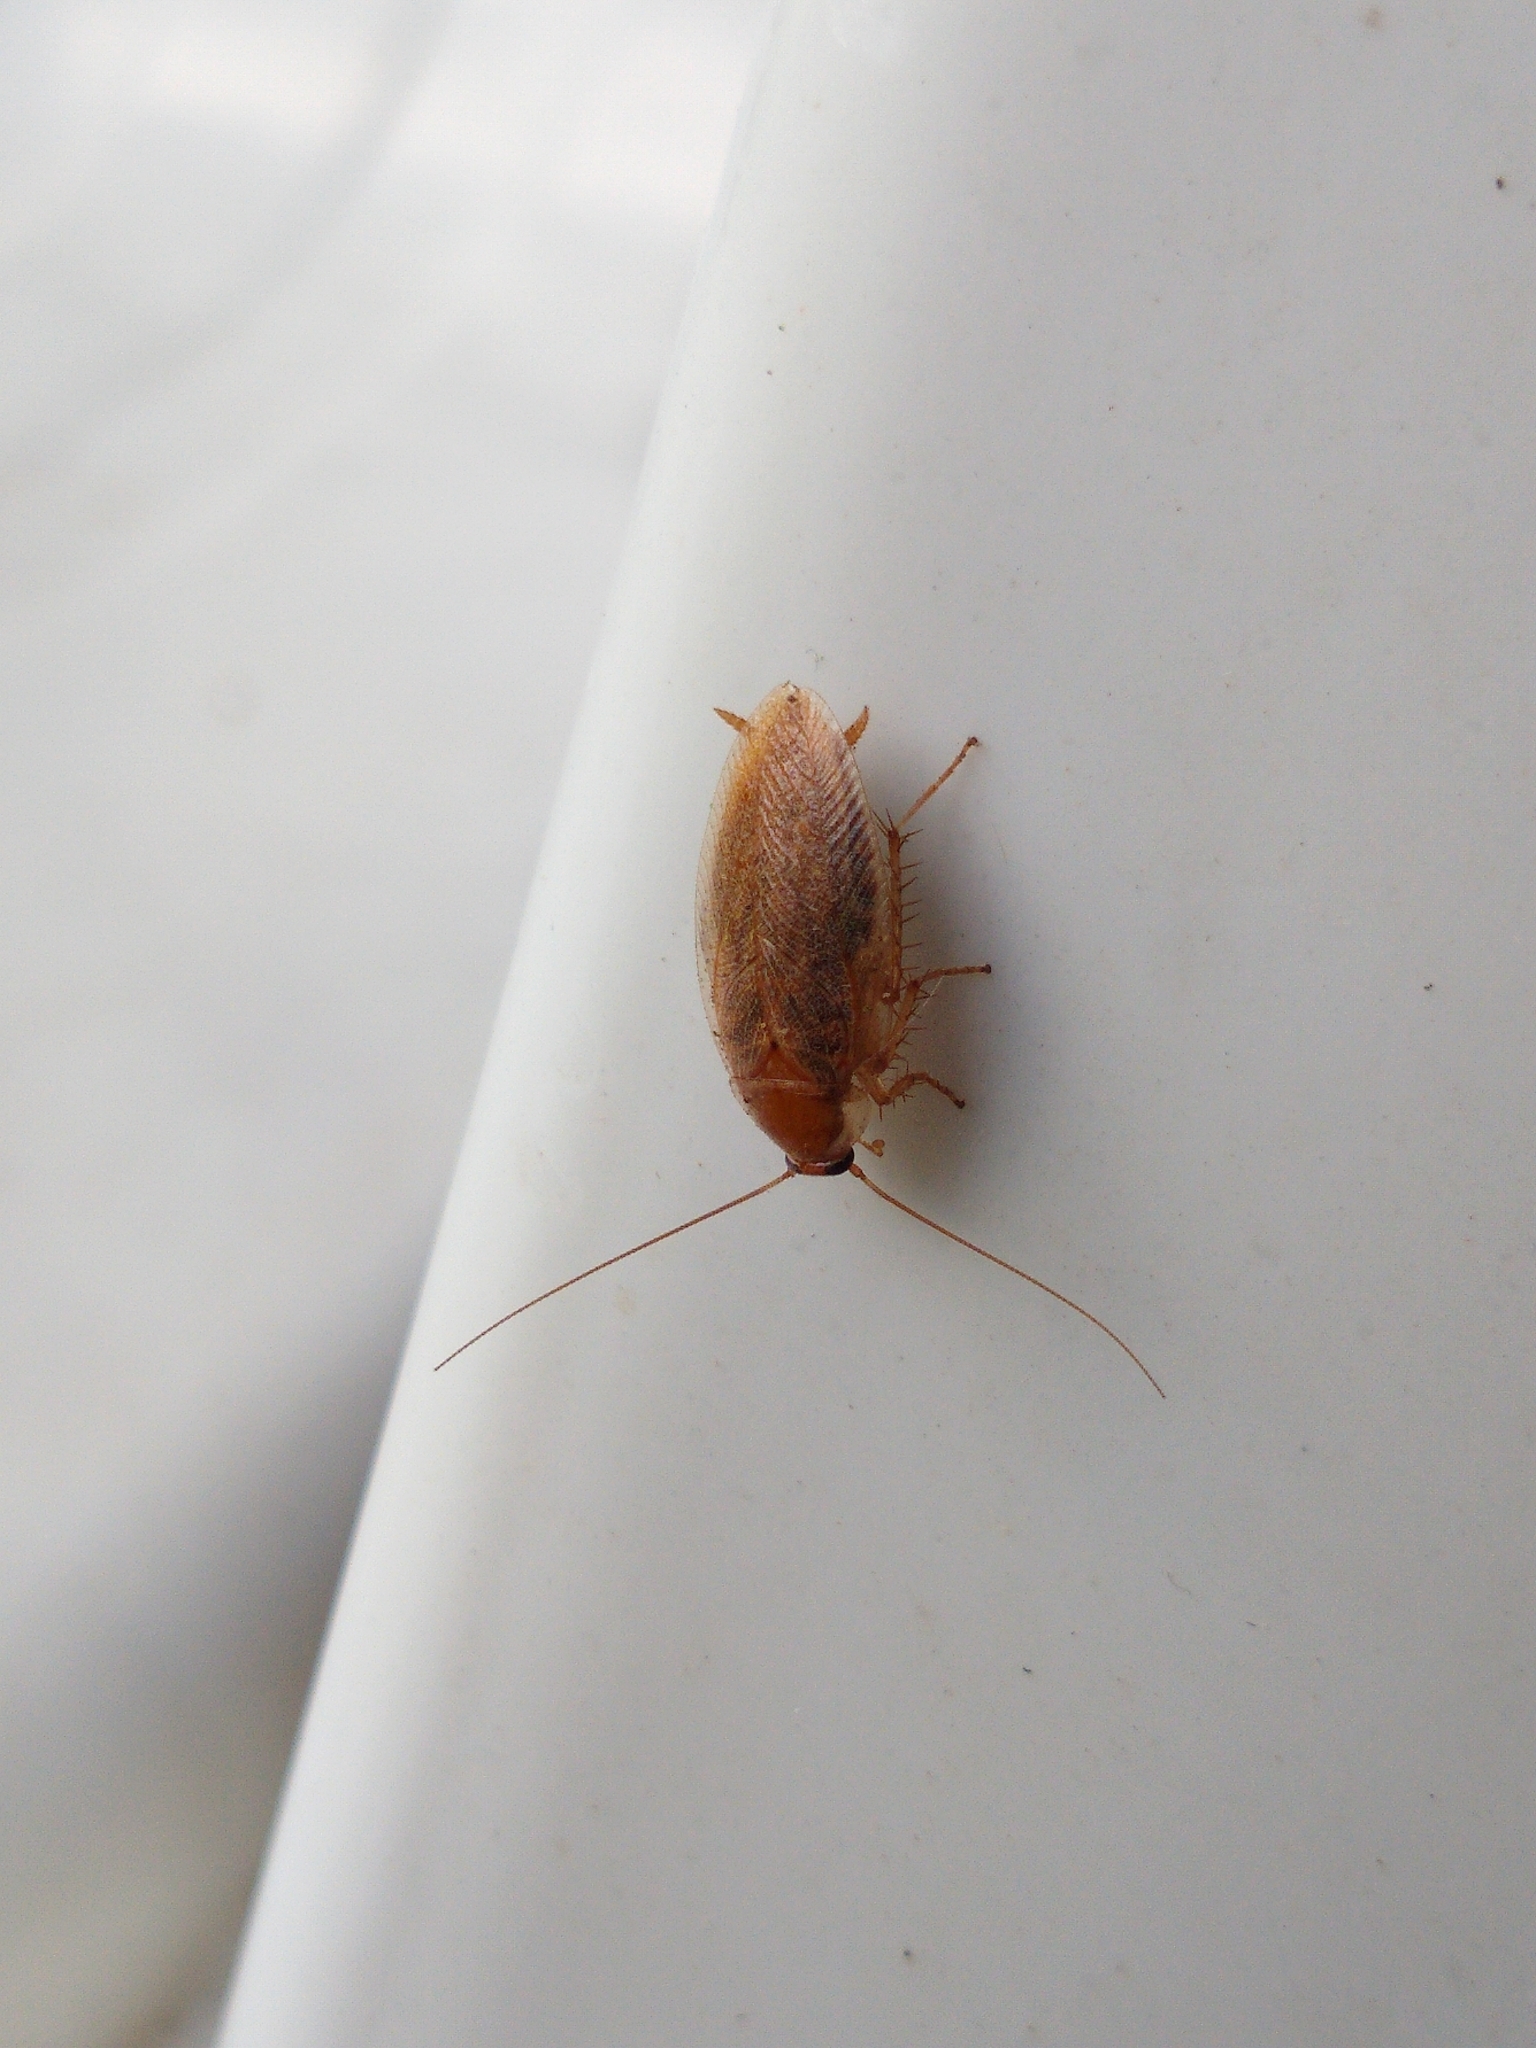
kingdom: Animalia
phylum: Arthropoda
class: Insecta
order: Blattodea
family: Ectobiidae
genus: Ectobius
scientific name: Ectobius vittiventris
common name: Garden cockroach
